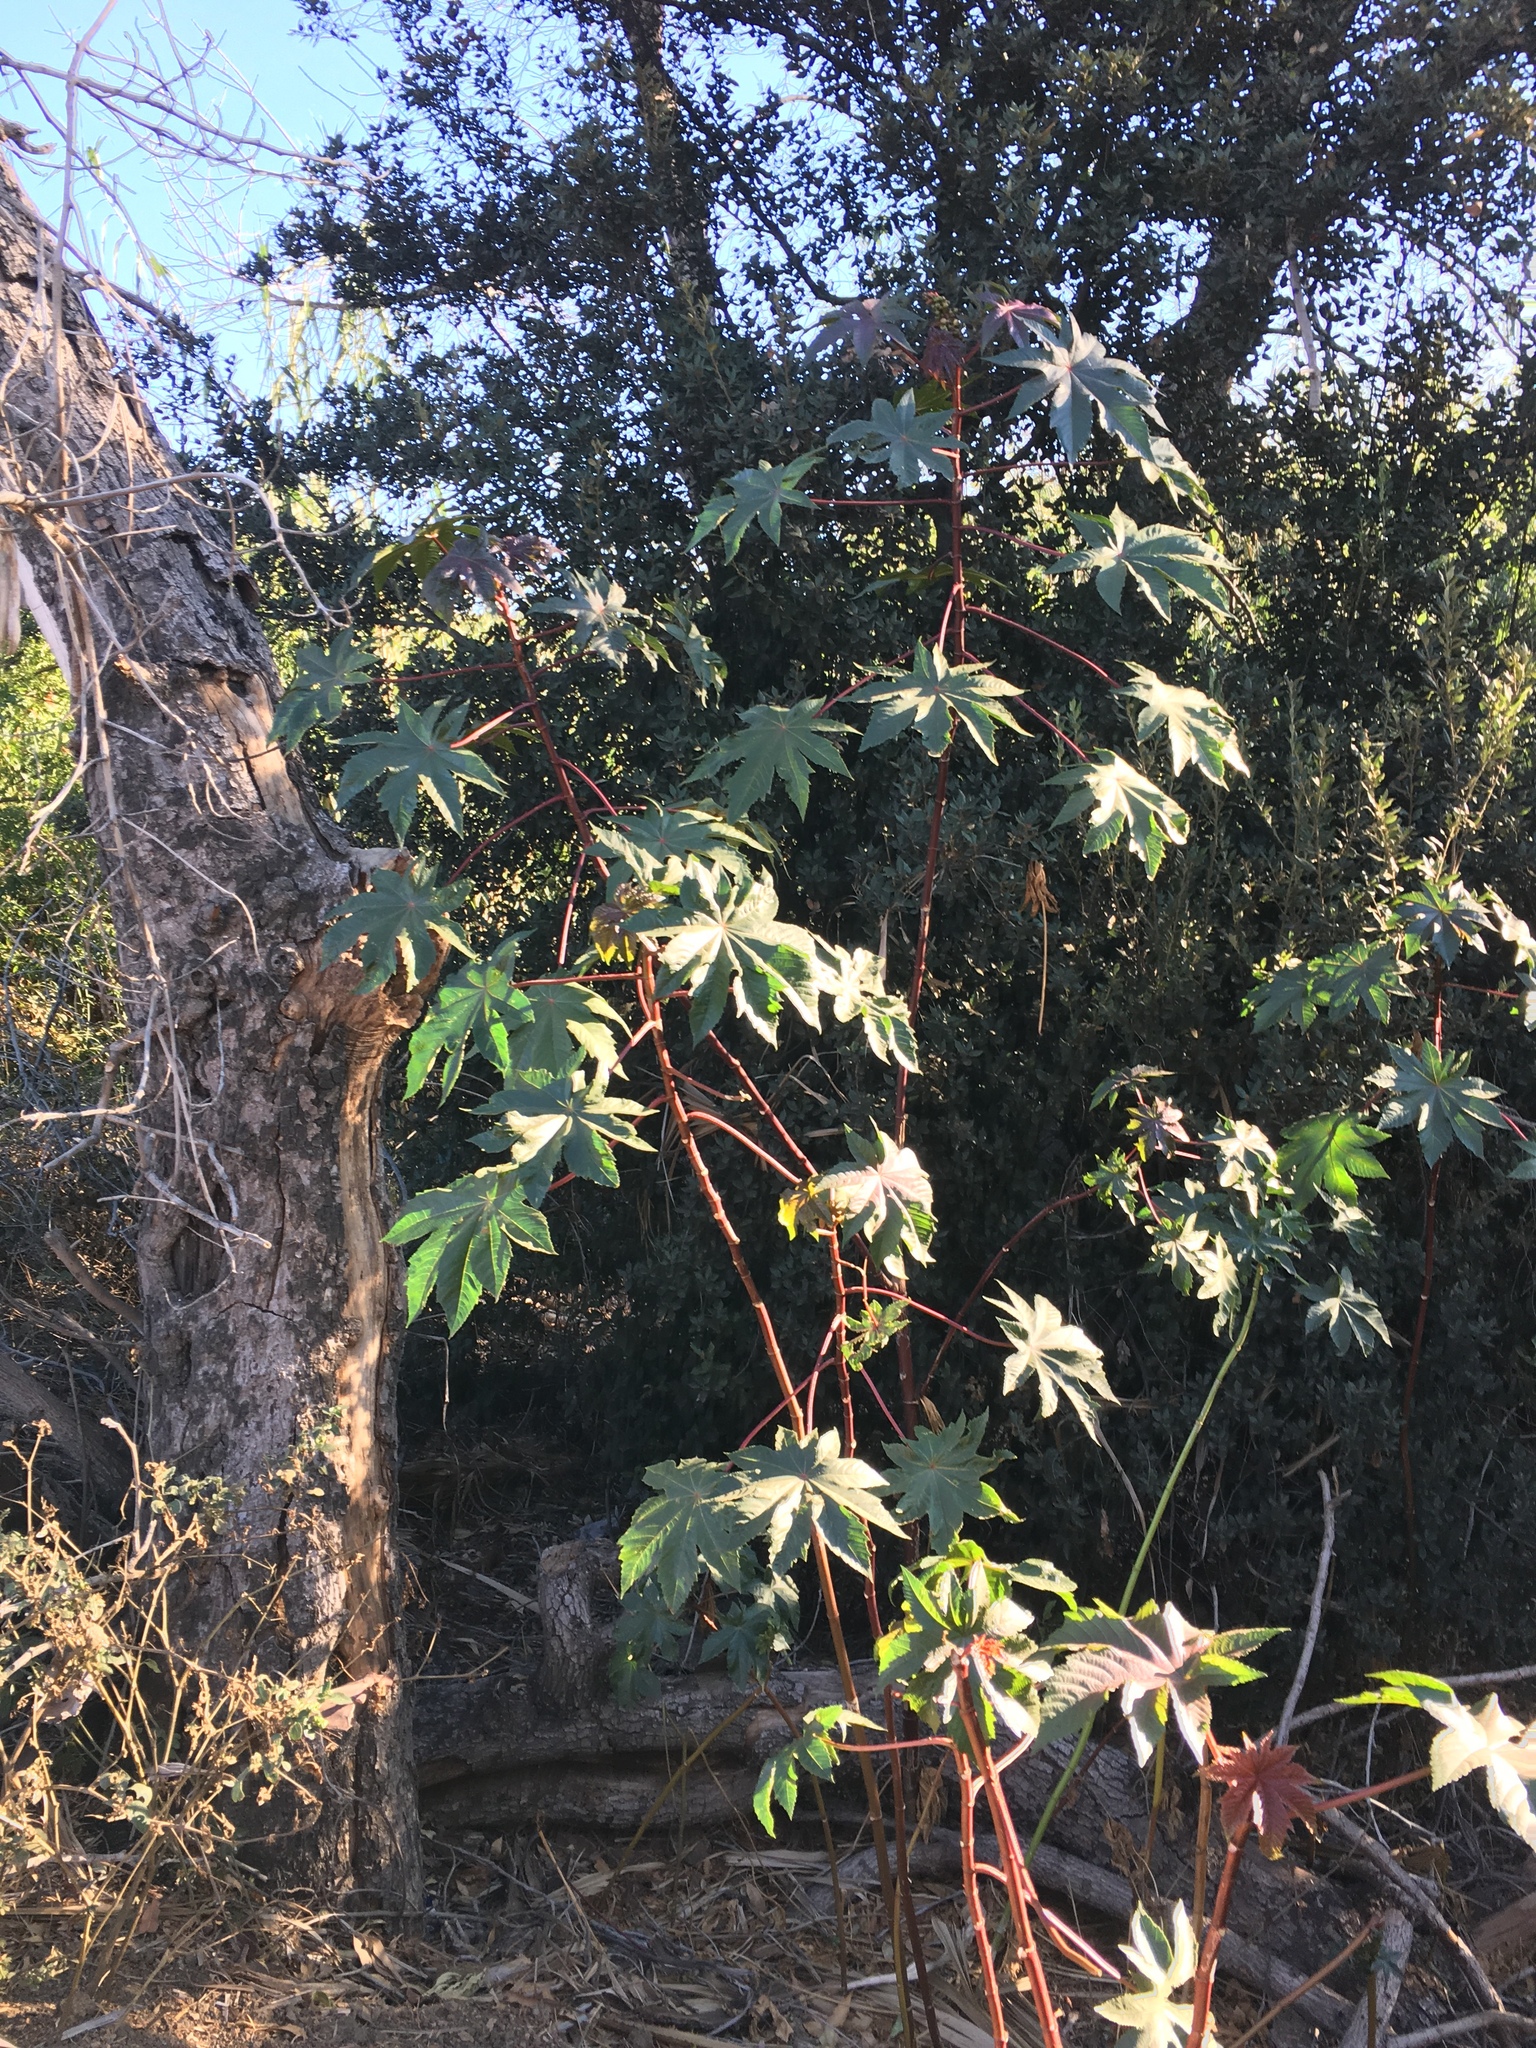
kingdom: Plantae
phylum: Tracheophyta
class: Magnoliopsida
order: Malpighiales
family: Euphorbiaceae
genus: Ricinus
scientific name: Ricinus communis
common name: Castor-oil-plant
